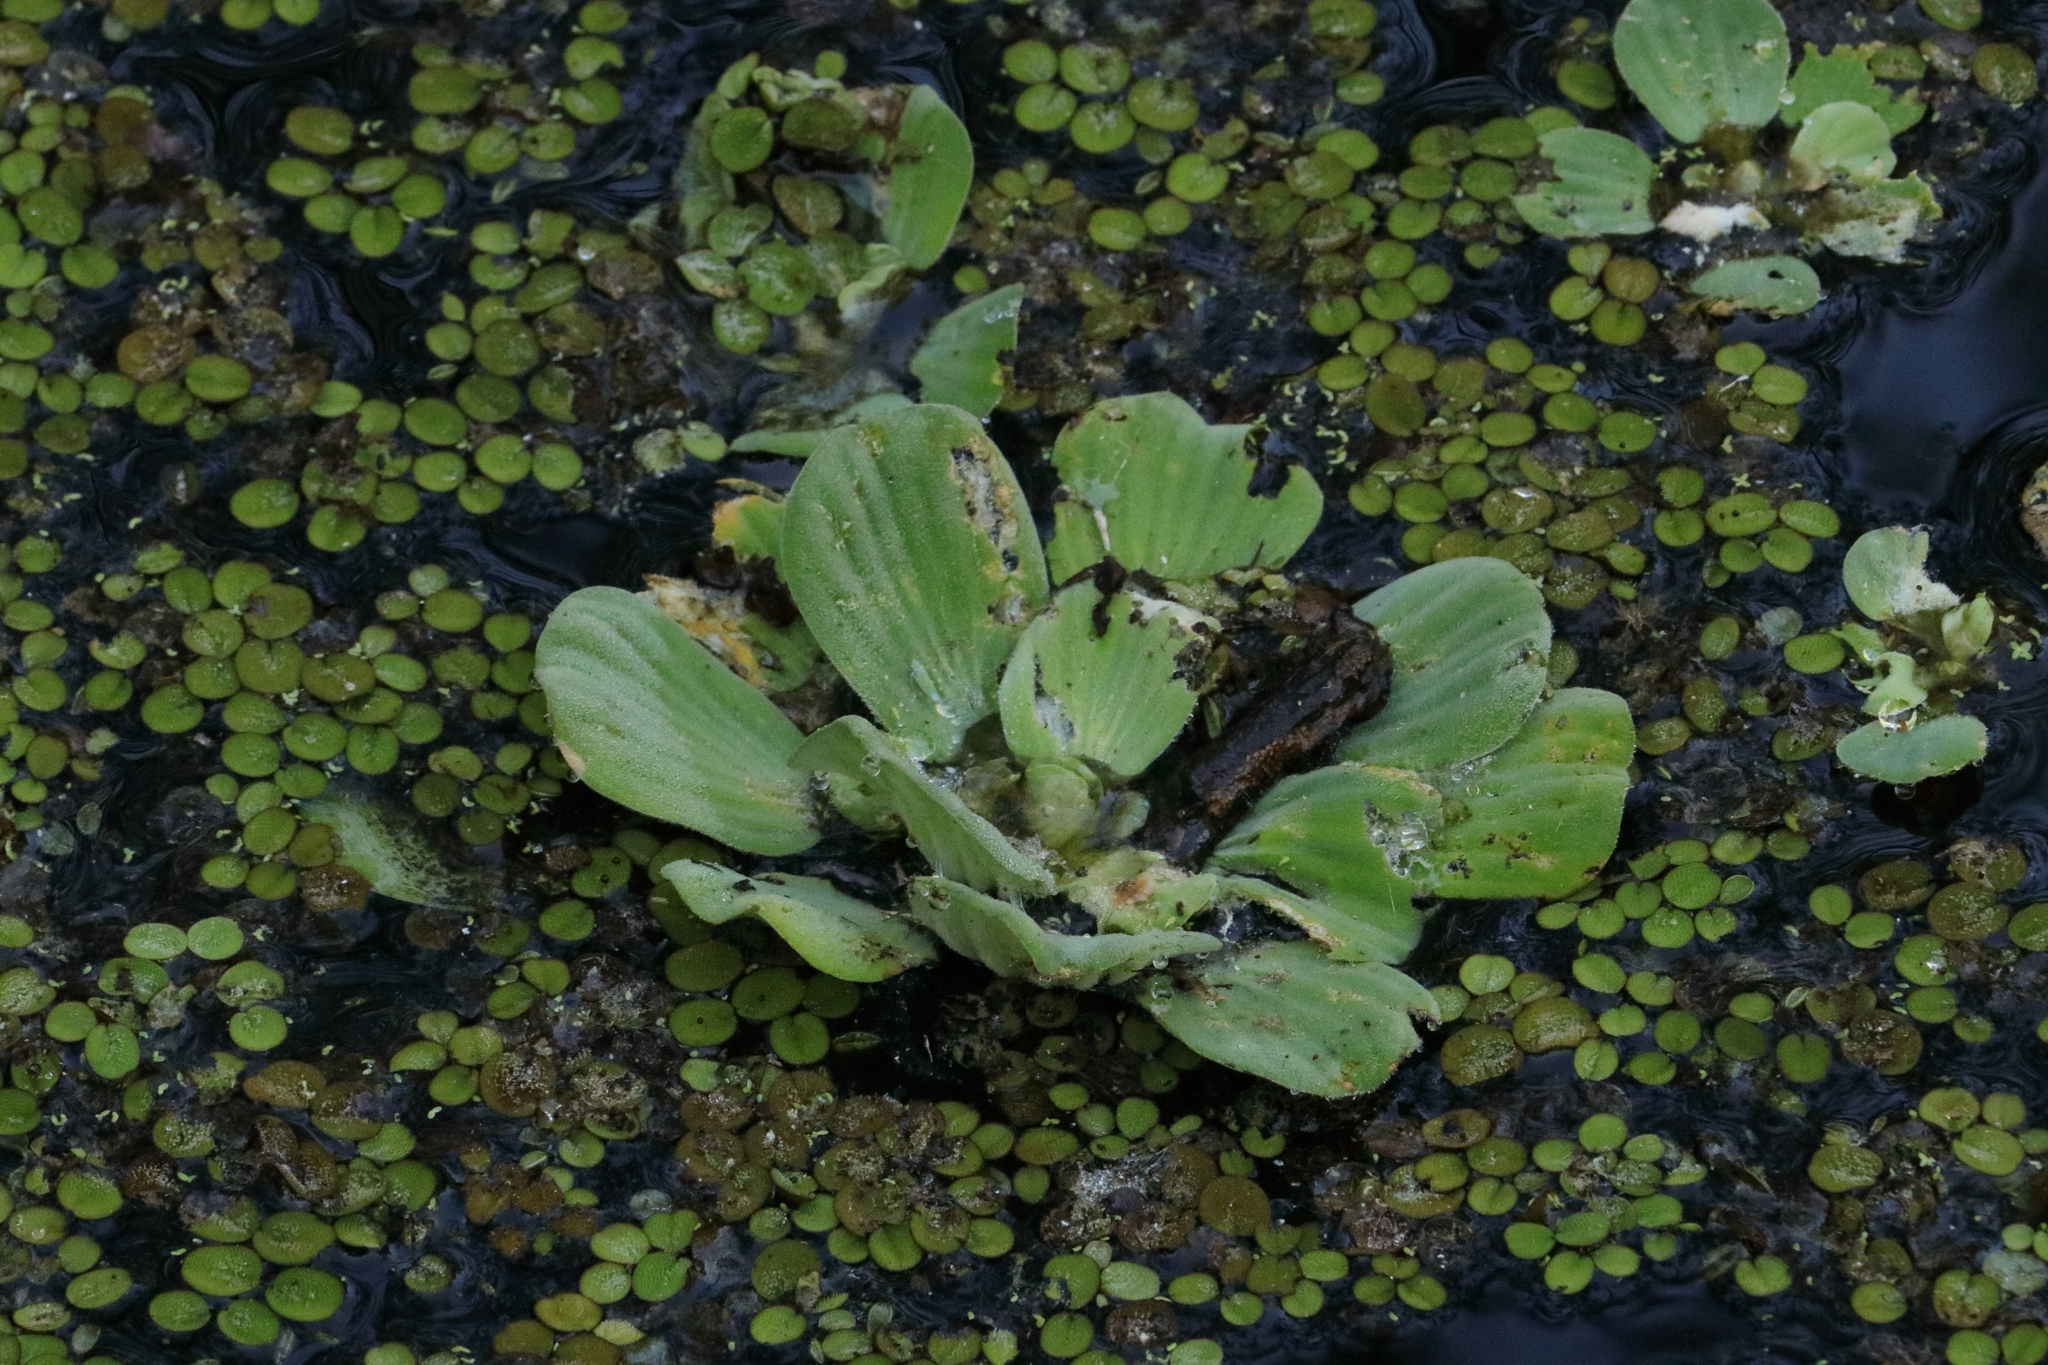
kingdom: Plantae
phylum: Tracheophyta
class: Liliopsida
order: Alismatales
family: Araceae
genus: Pistia
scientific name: Pistia stratiotes
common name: Water lettuce
